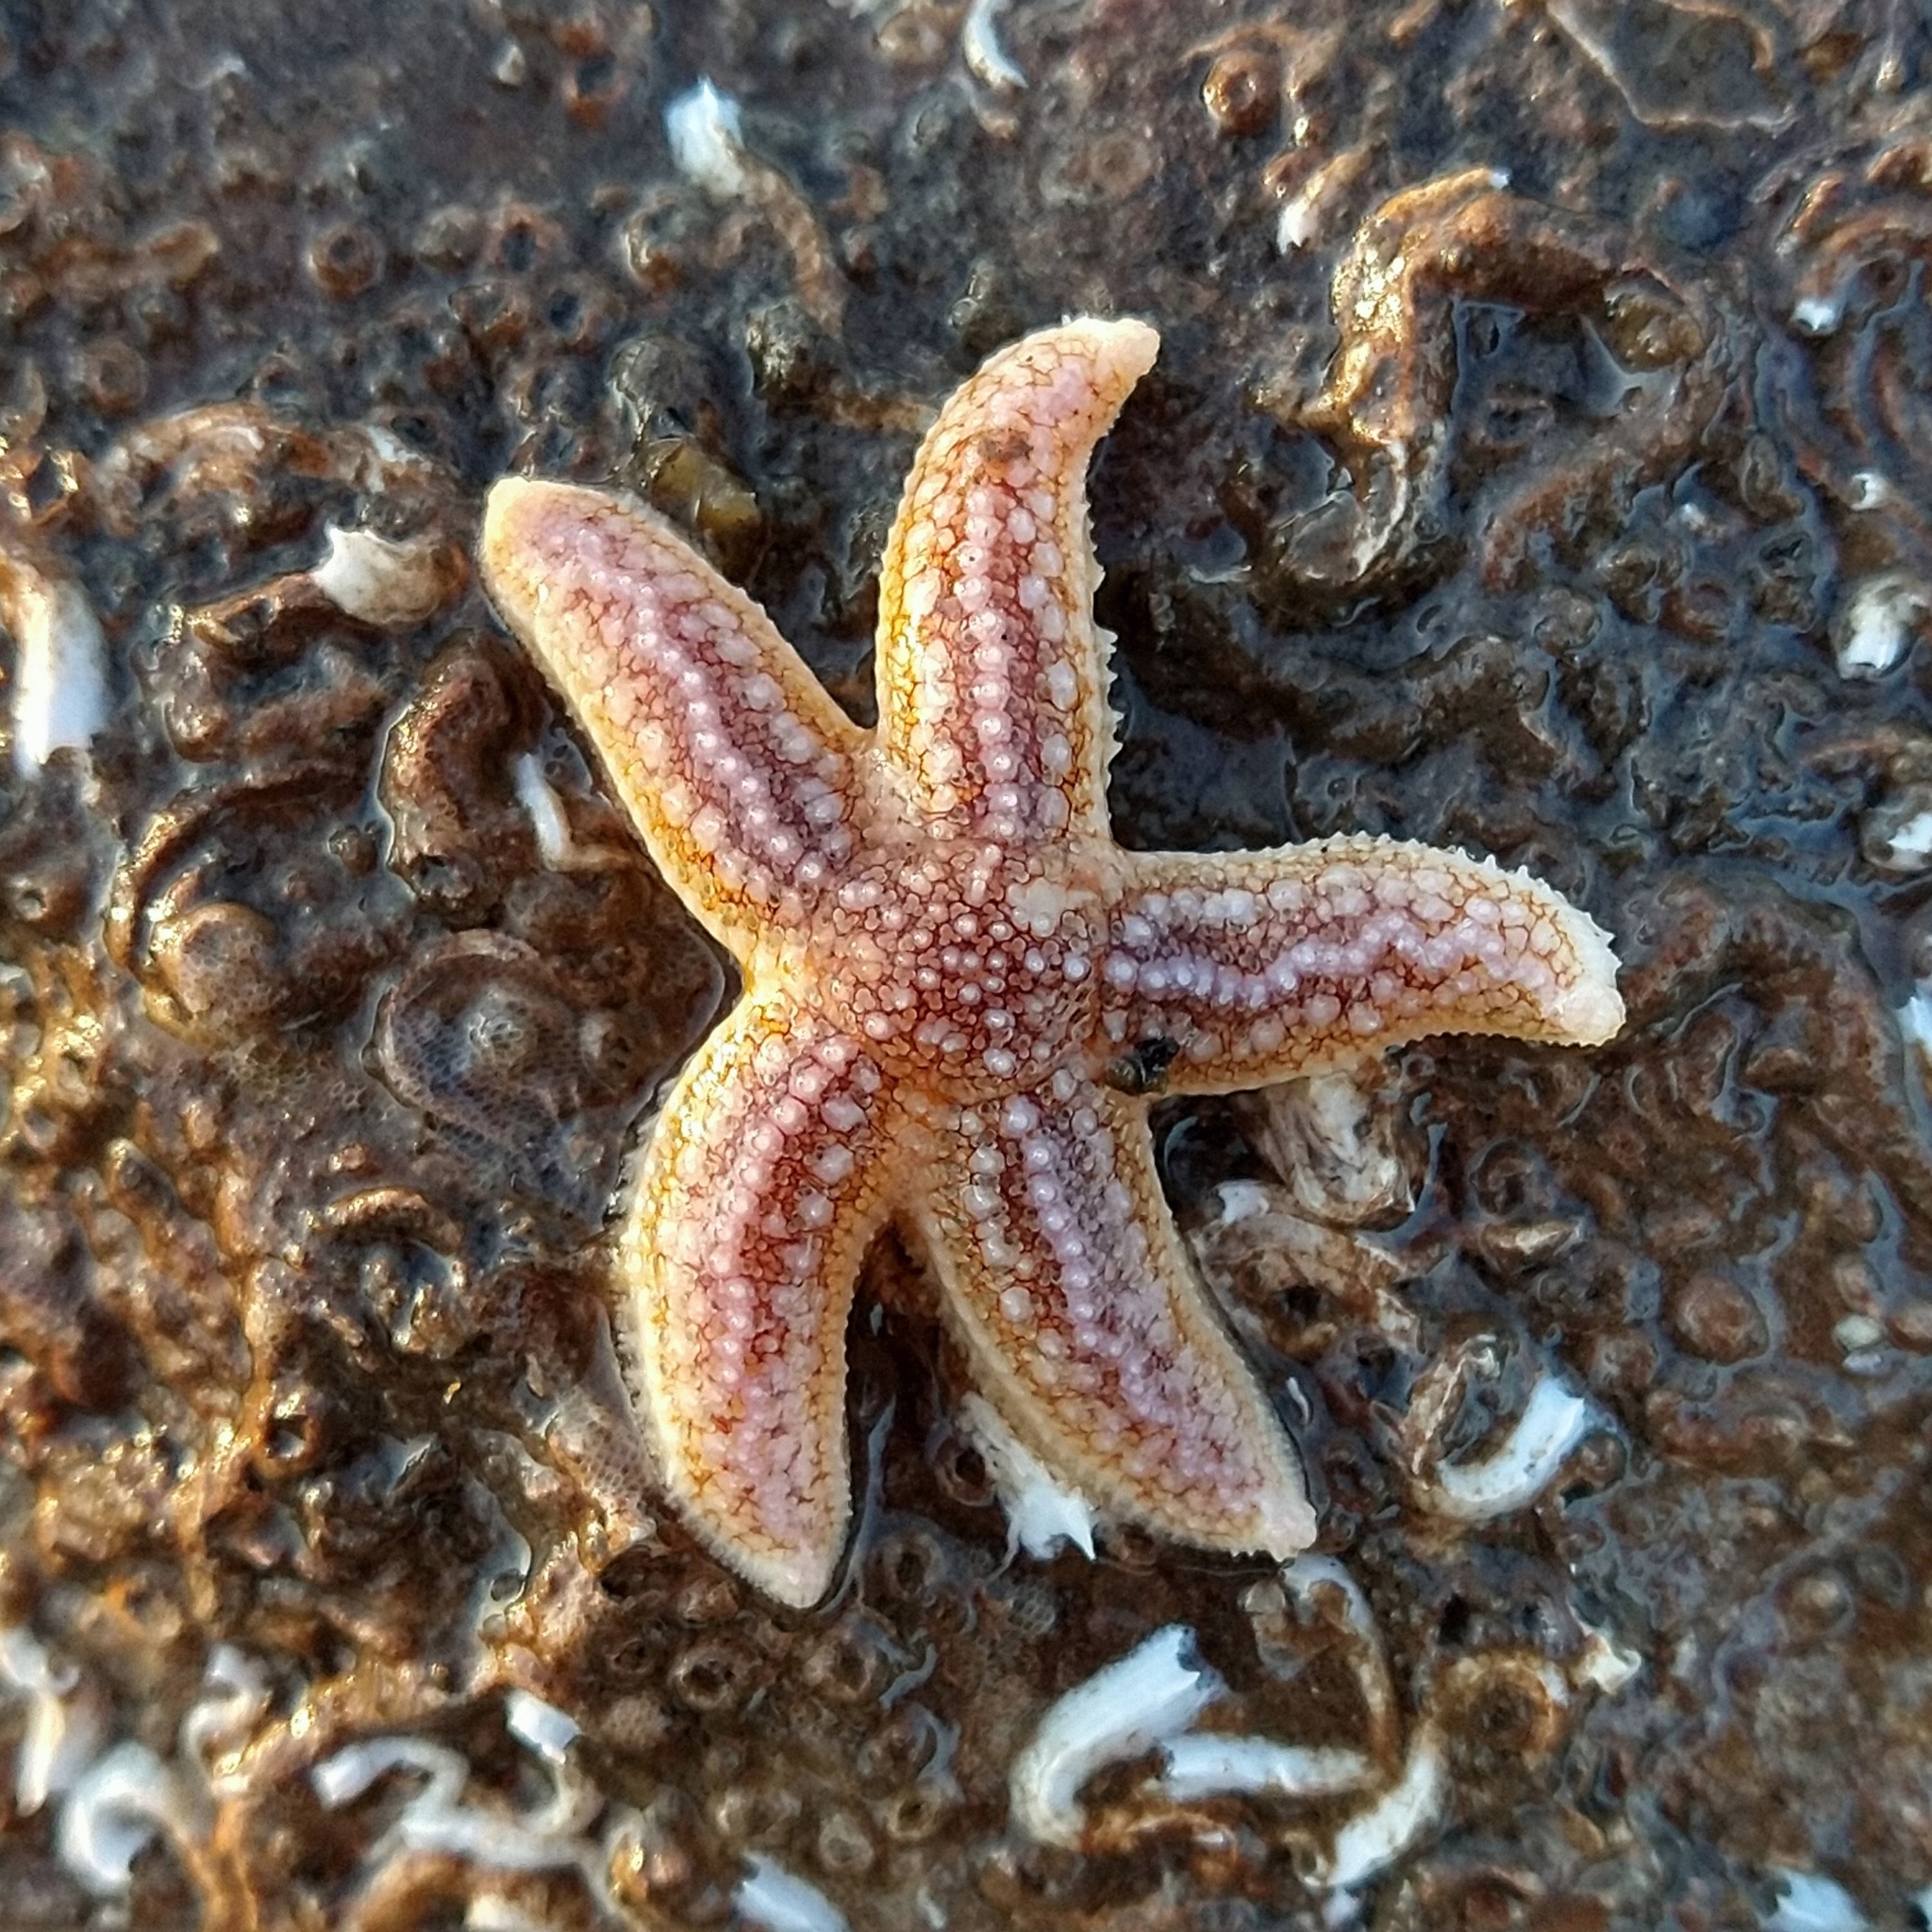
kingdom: Animalia
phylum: Echinodermata
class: Asteroidea
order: Forcipulatida
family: Asteriidae
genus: Asterias
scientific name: Asterias rubens
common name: Common starfish
